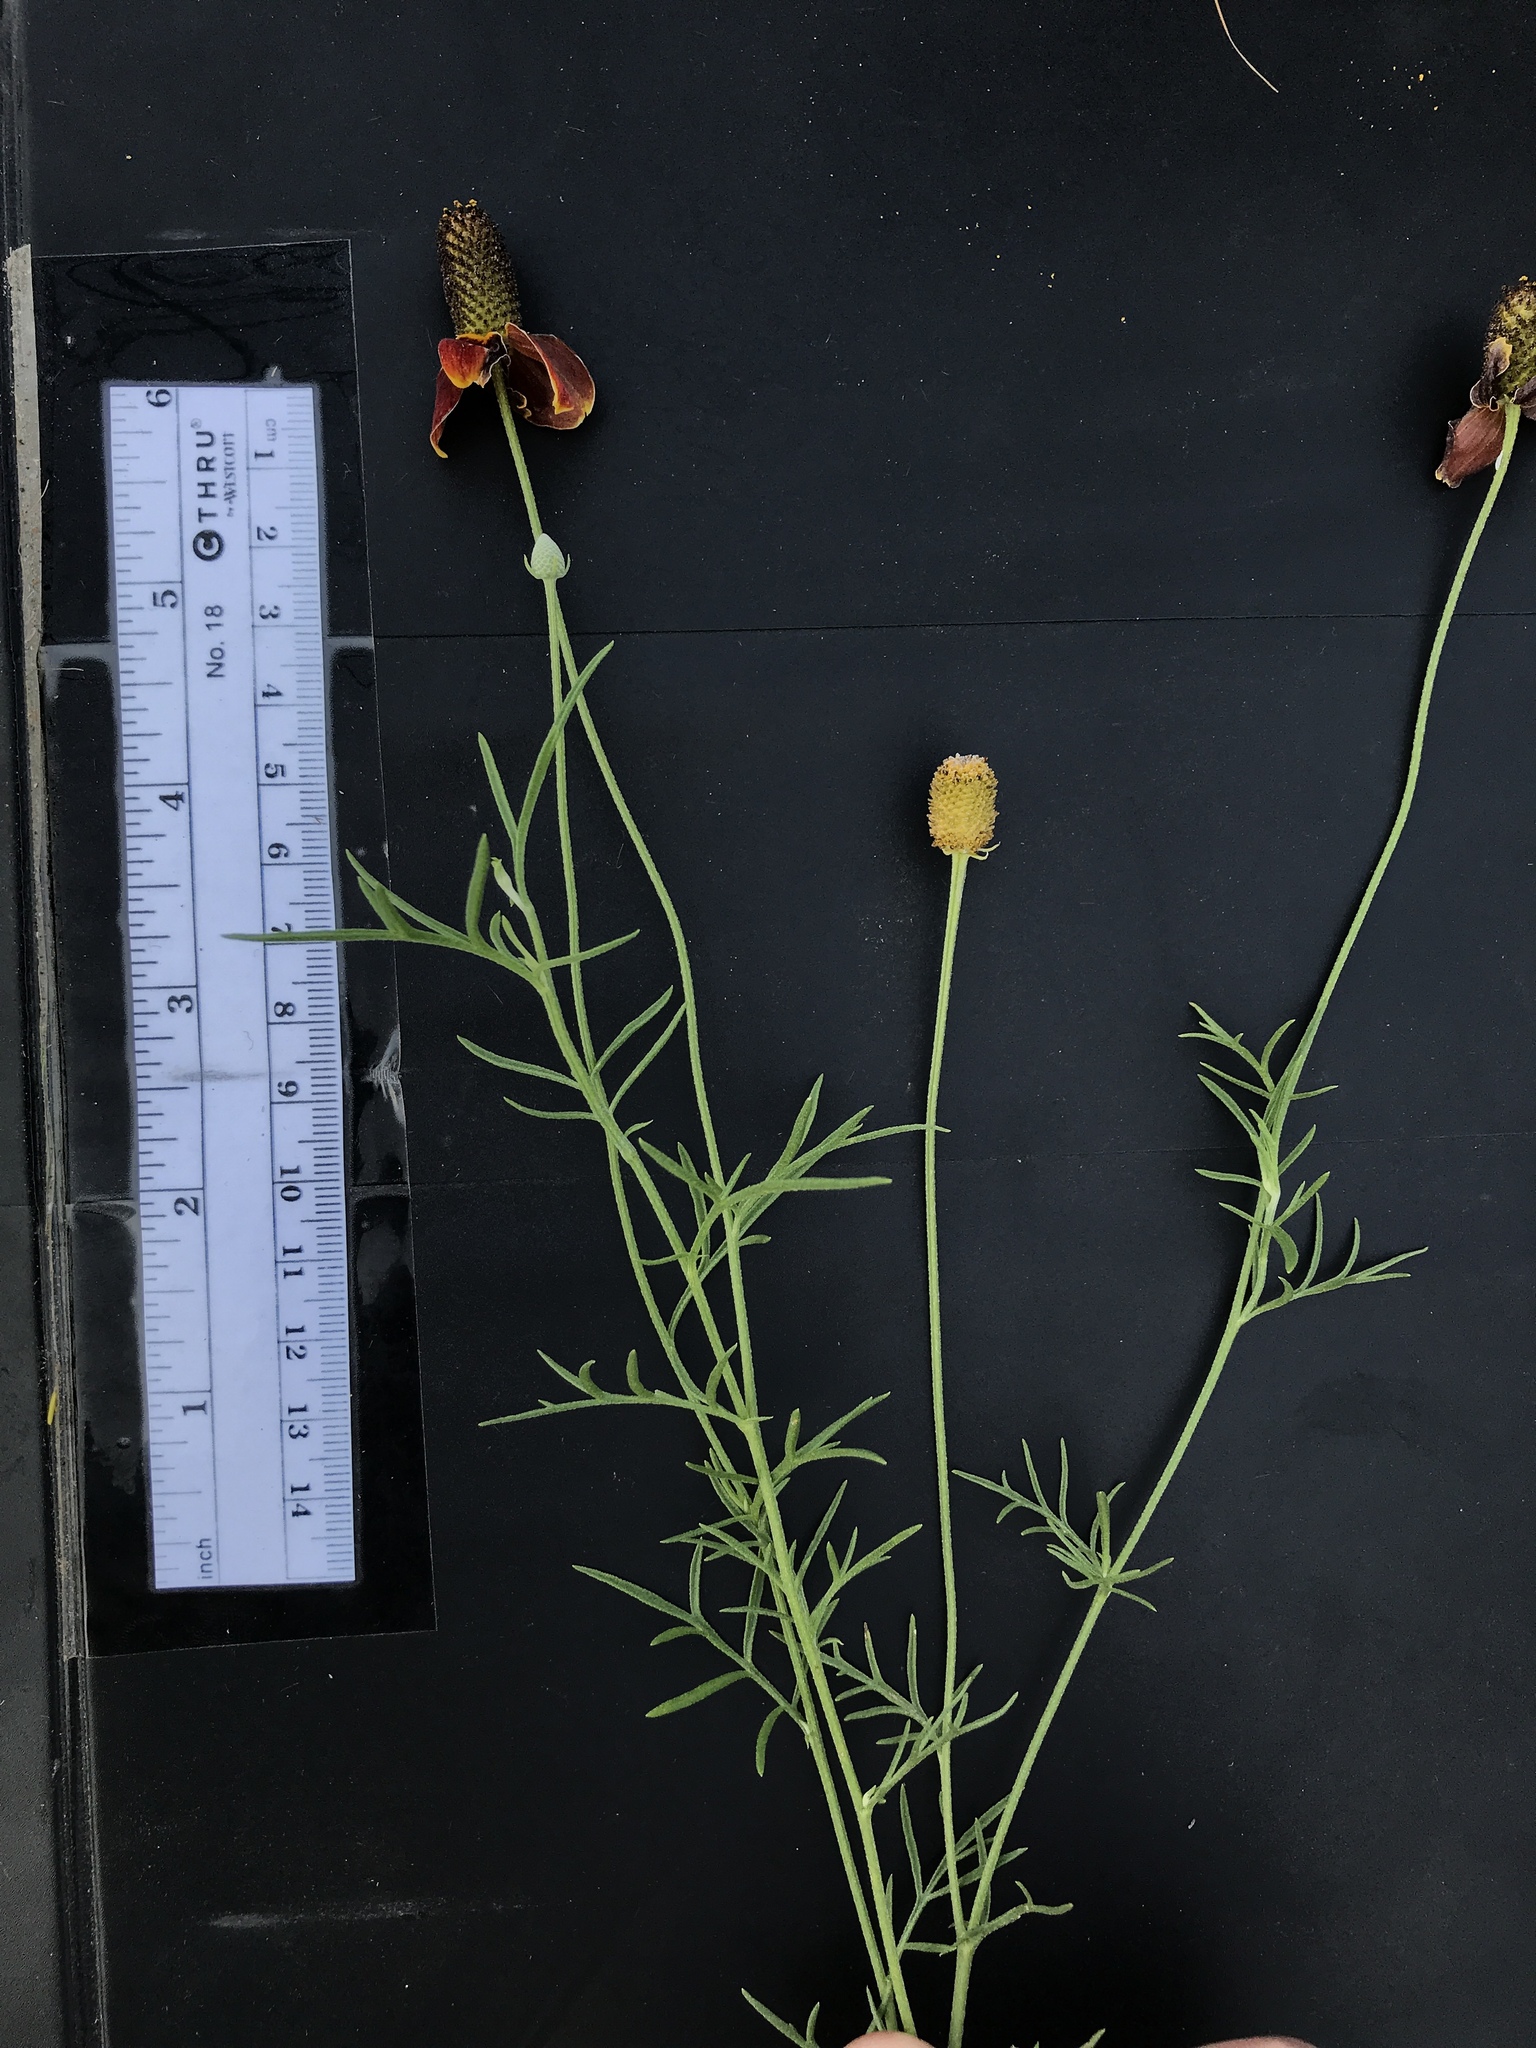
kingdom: Plantae
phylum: Tracheophyta
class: Magnoliopsida
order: Asterales
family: Asteraceae
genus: Ratibida
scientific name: Ratibida columnifera
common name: Prairie coneflower
